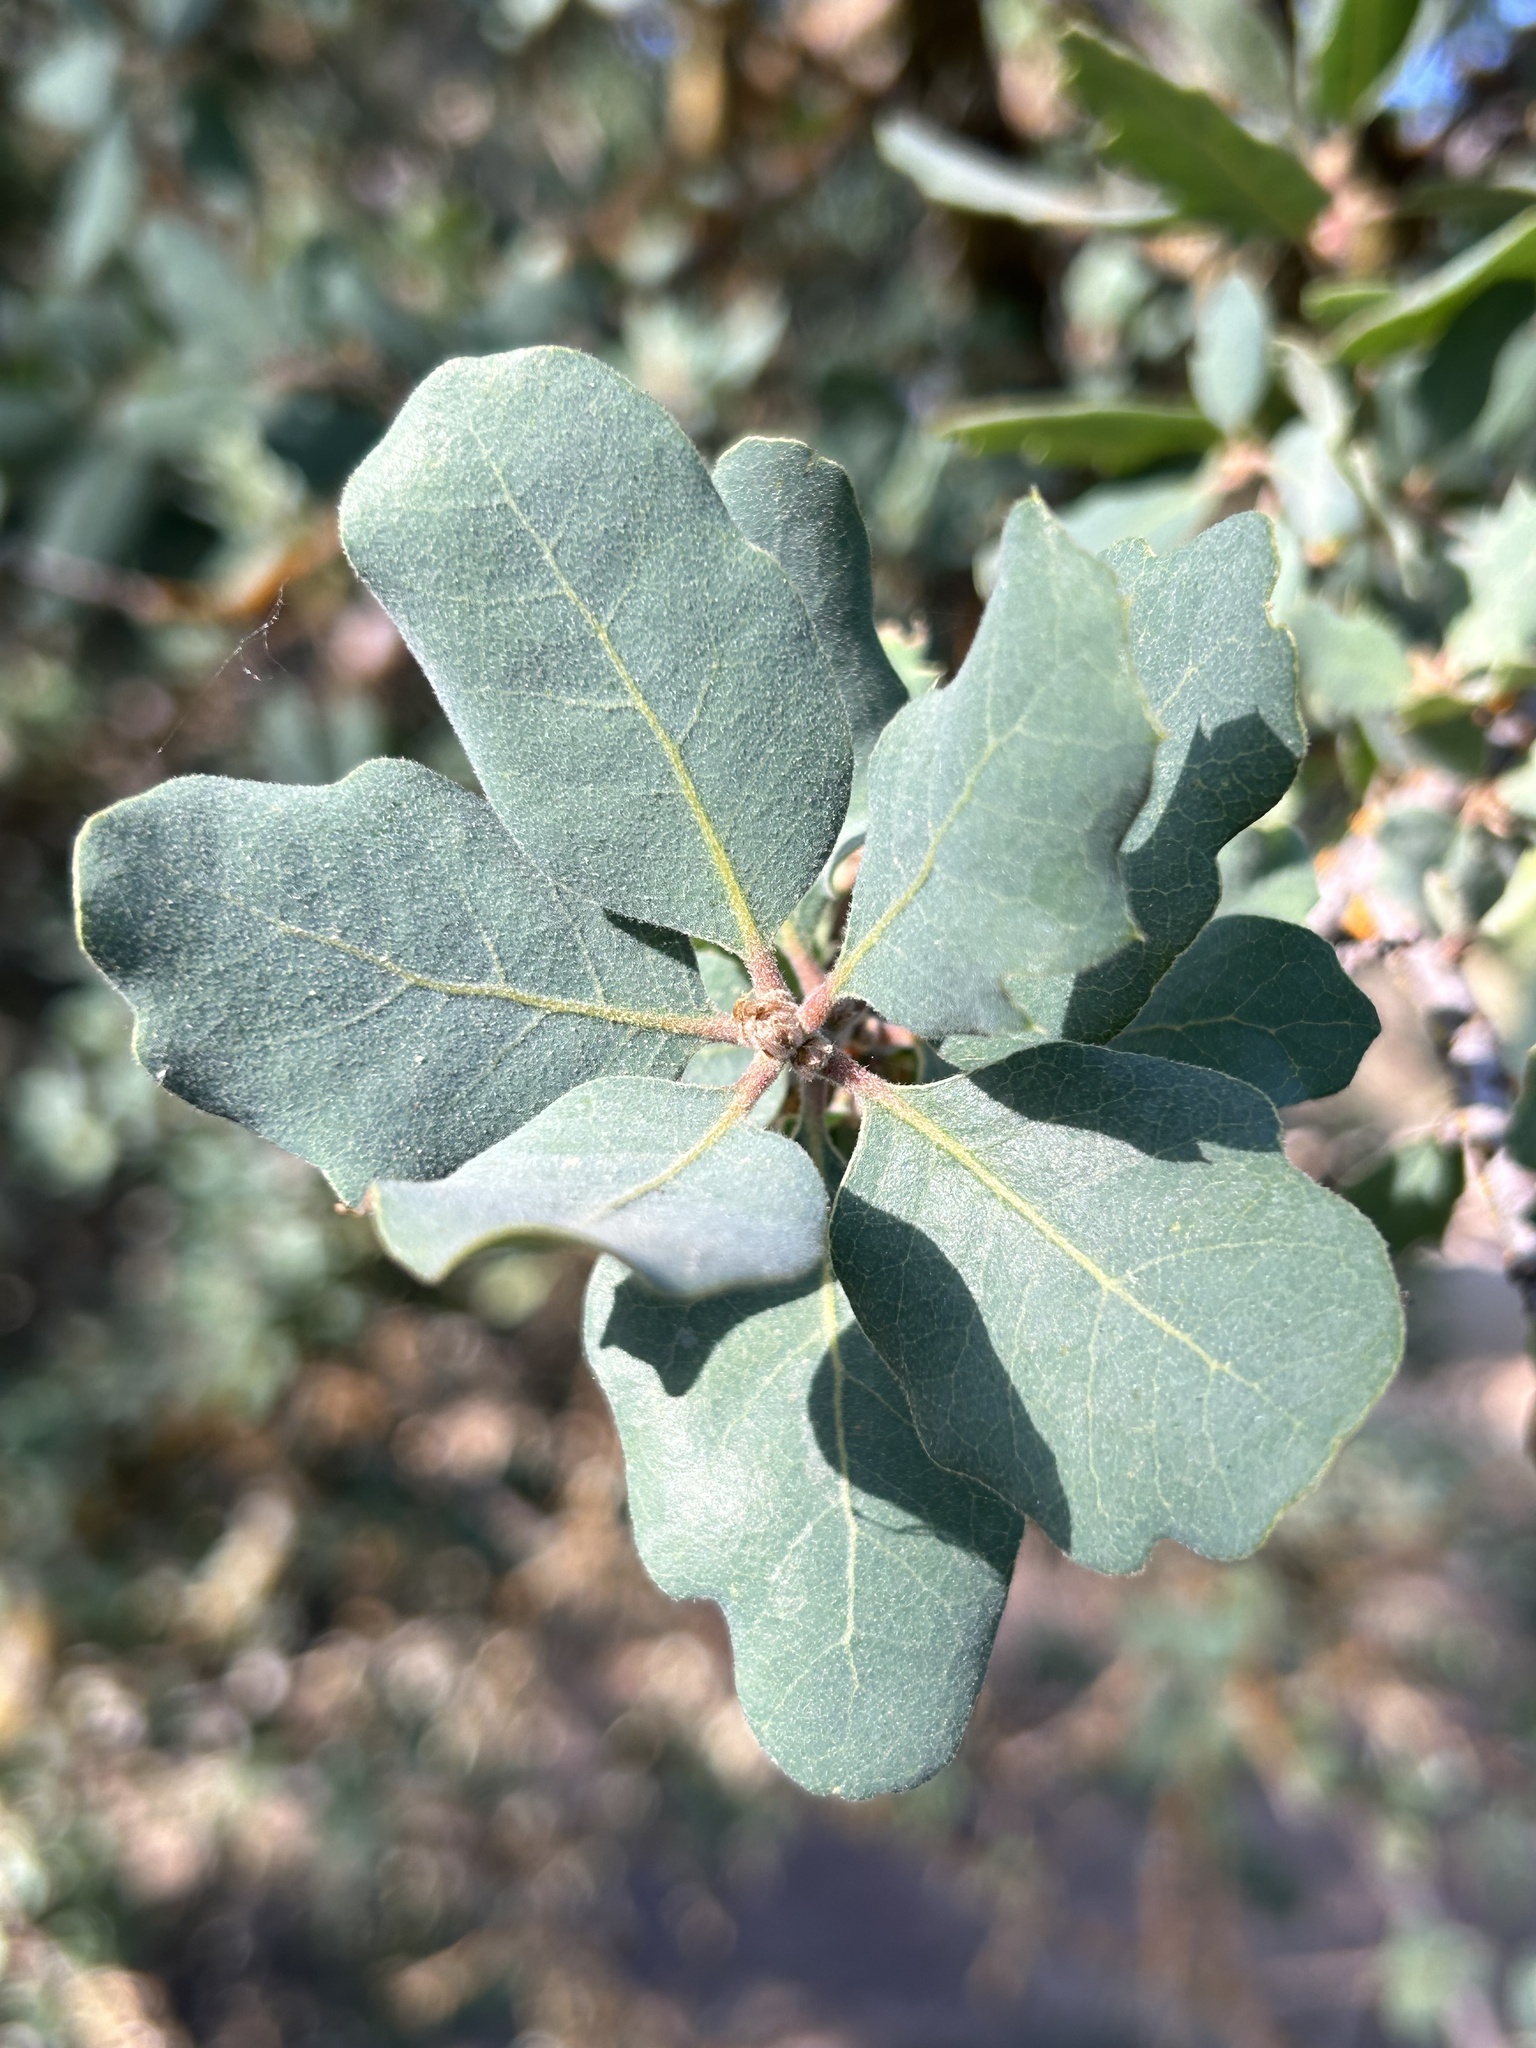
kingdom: Plantae
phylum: Tracheophyta
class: Magnoliopsida
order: Fagales
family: Fagaceae
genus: Quercus
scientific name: Quercus douglasii
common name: Blue oak
